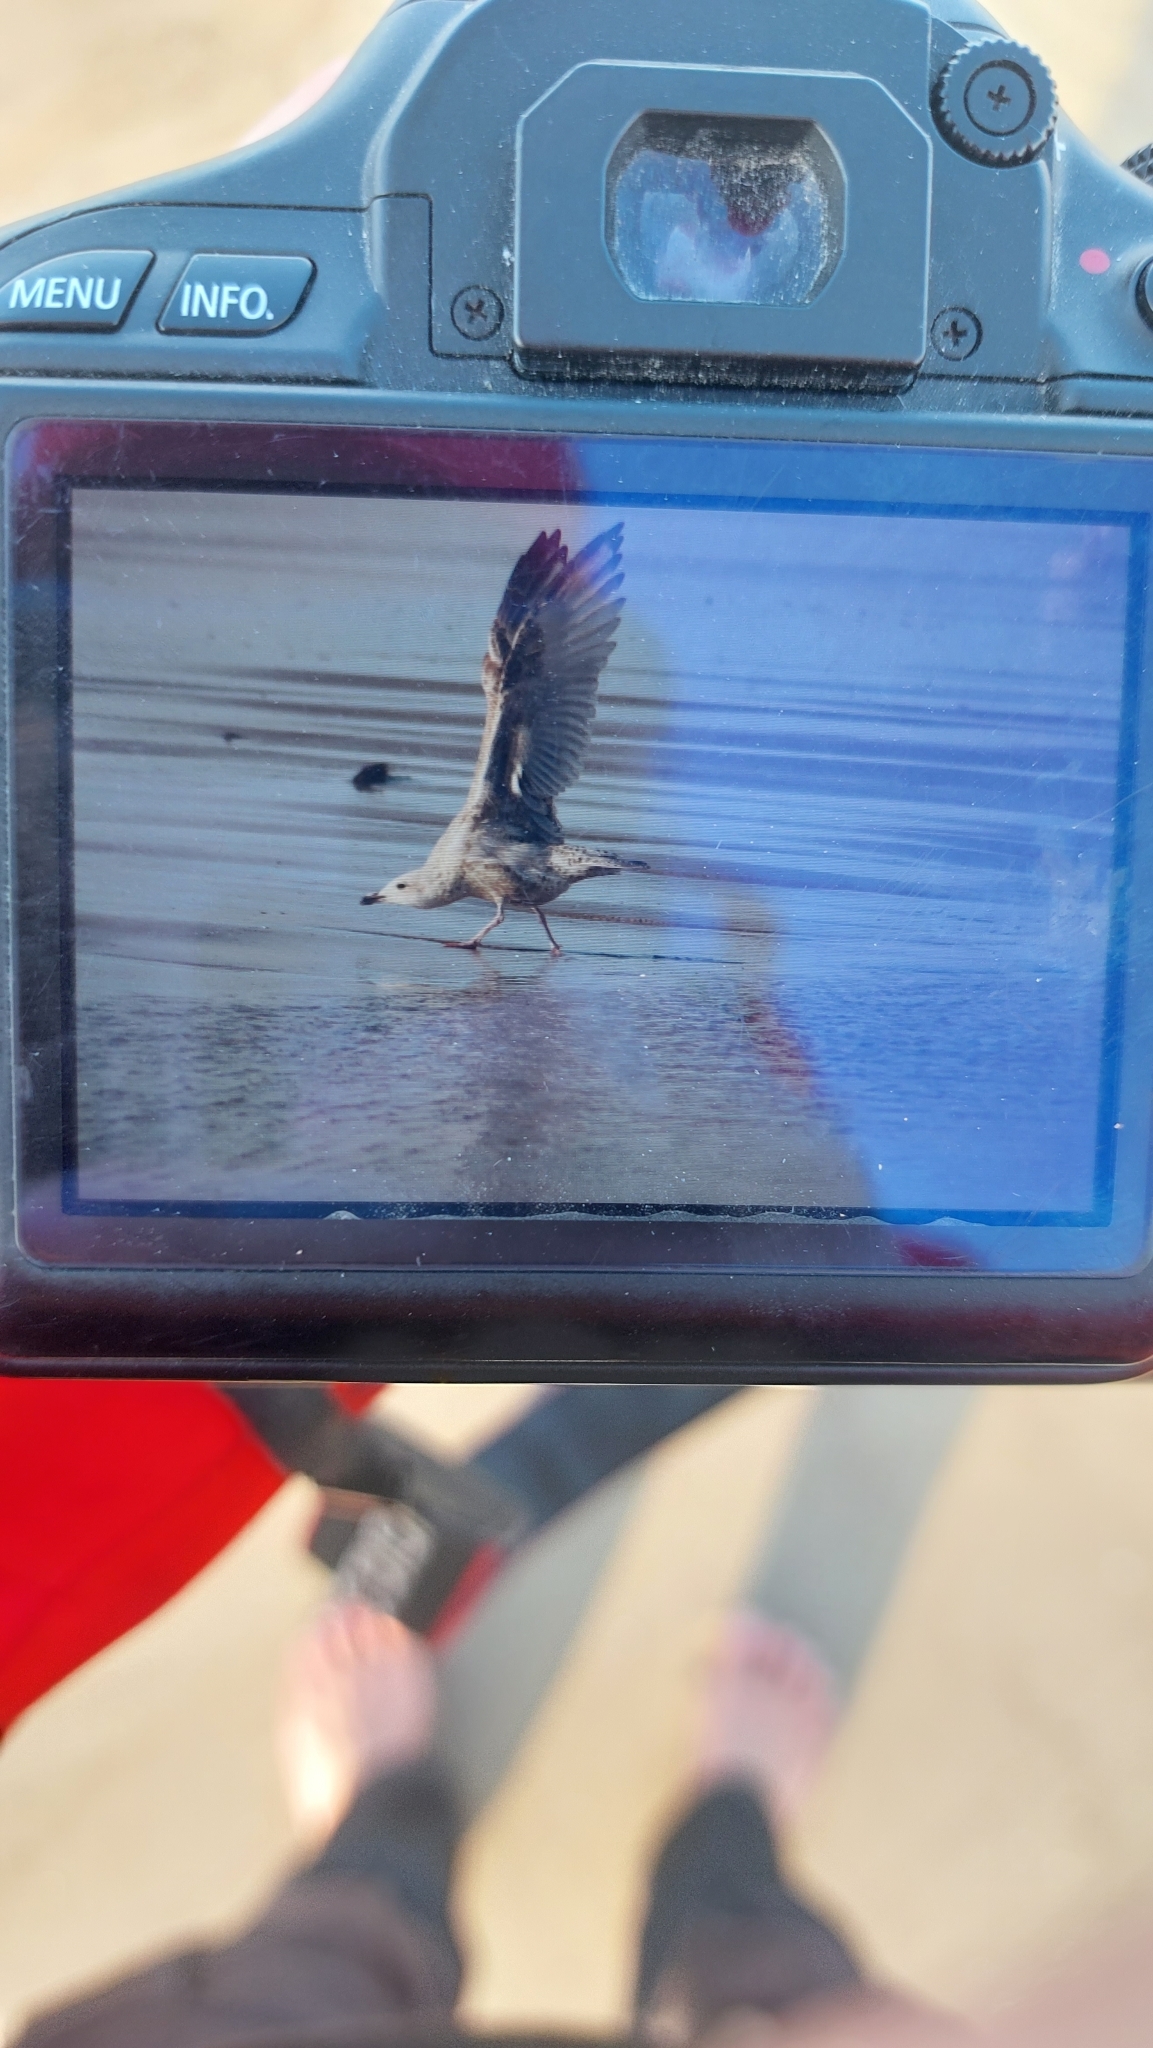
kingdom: Animalia
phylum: Chordata
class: Aves
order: Charadriiformes
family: Laridae
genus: Larus
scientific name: Larus argentatus
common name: Herring gull
